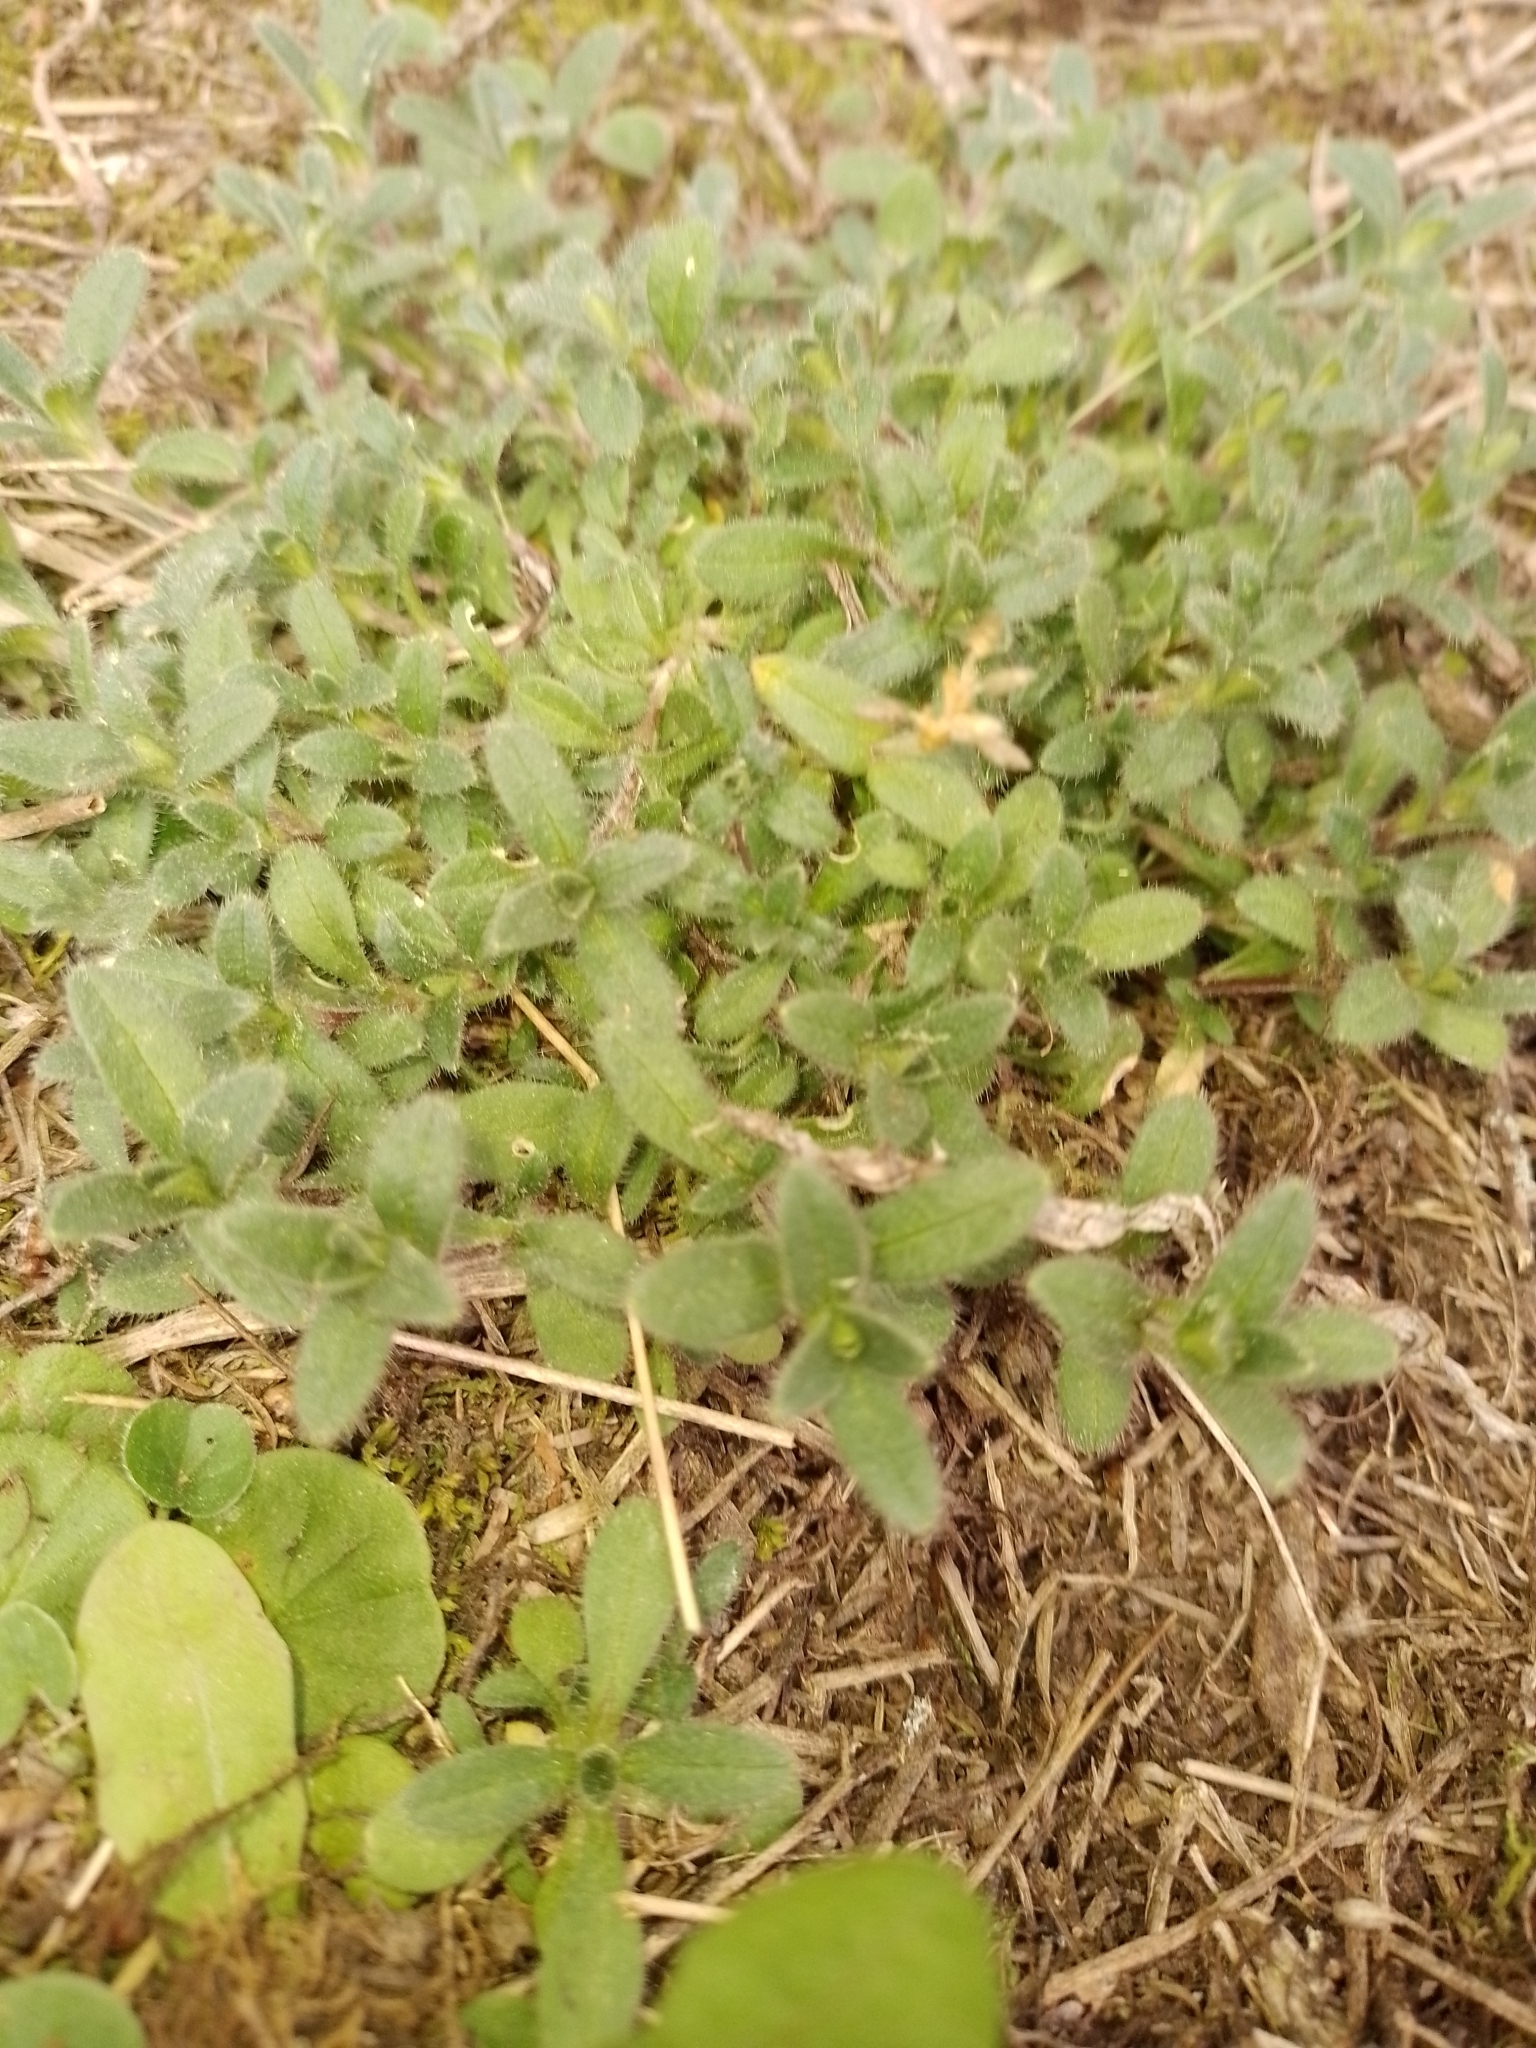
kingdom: Plantae
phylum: Tracheophyta
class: Magnoliopsida
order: Caryophyllales
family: Caryophyllaceae
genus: Cerastium
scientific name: Cerastium fontanum
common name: Common mouse-ear
